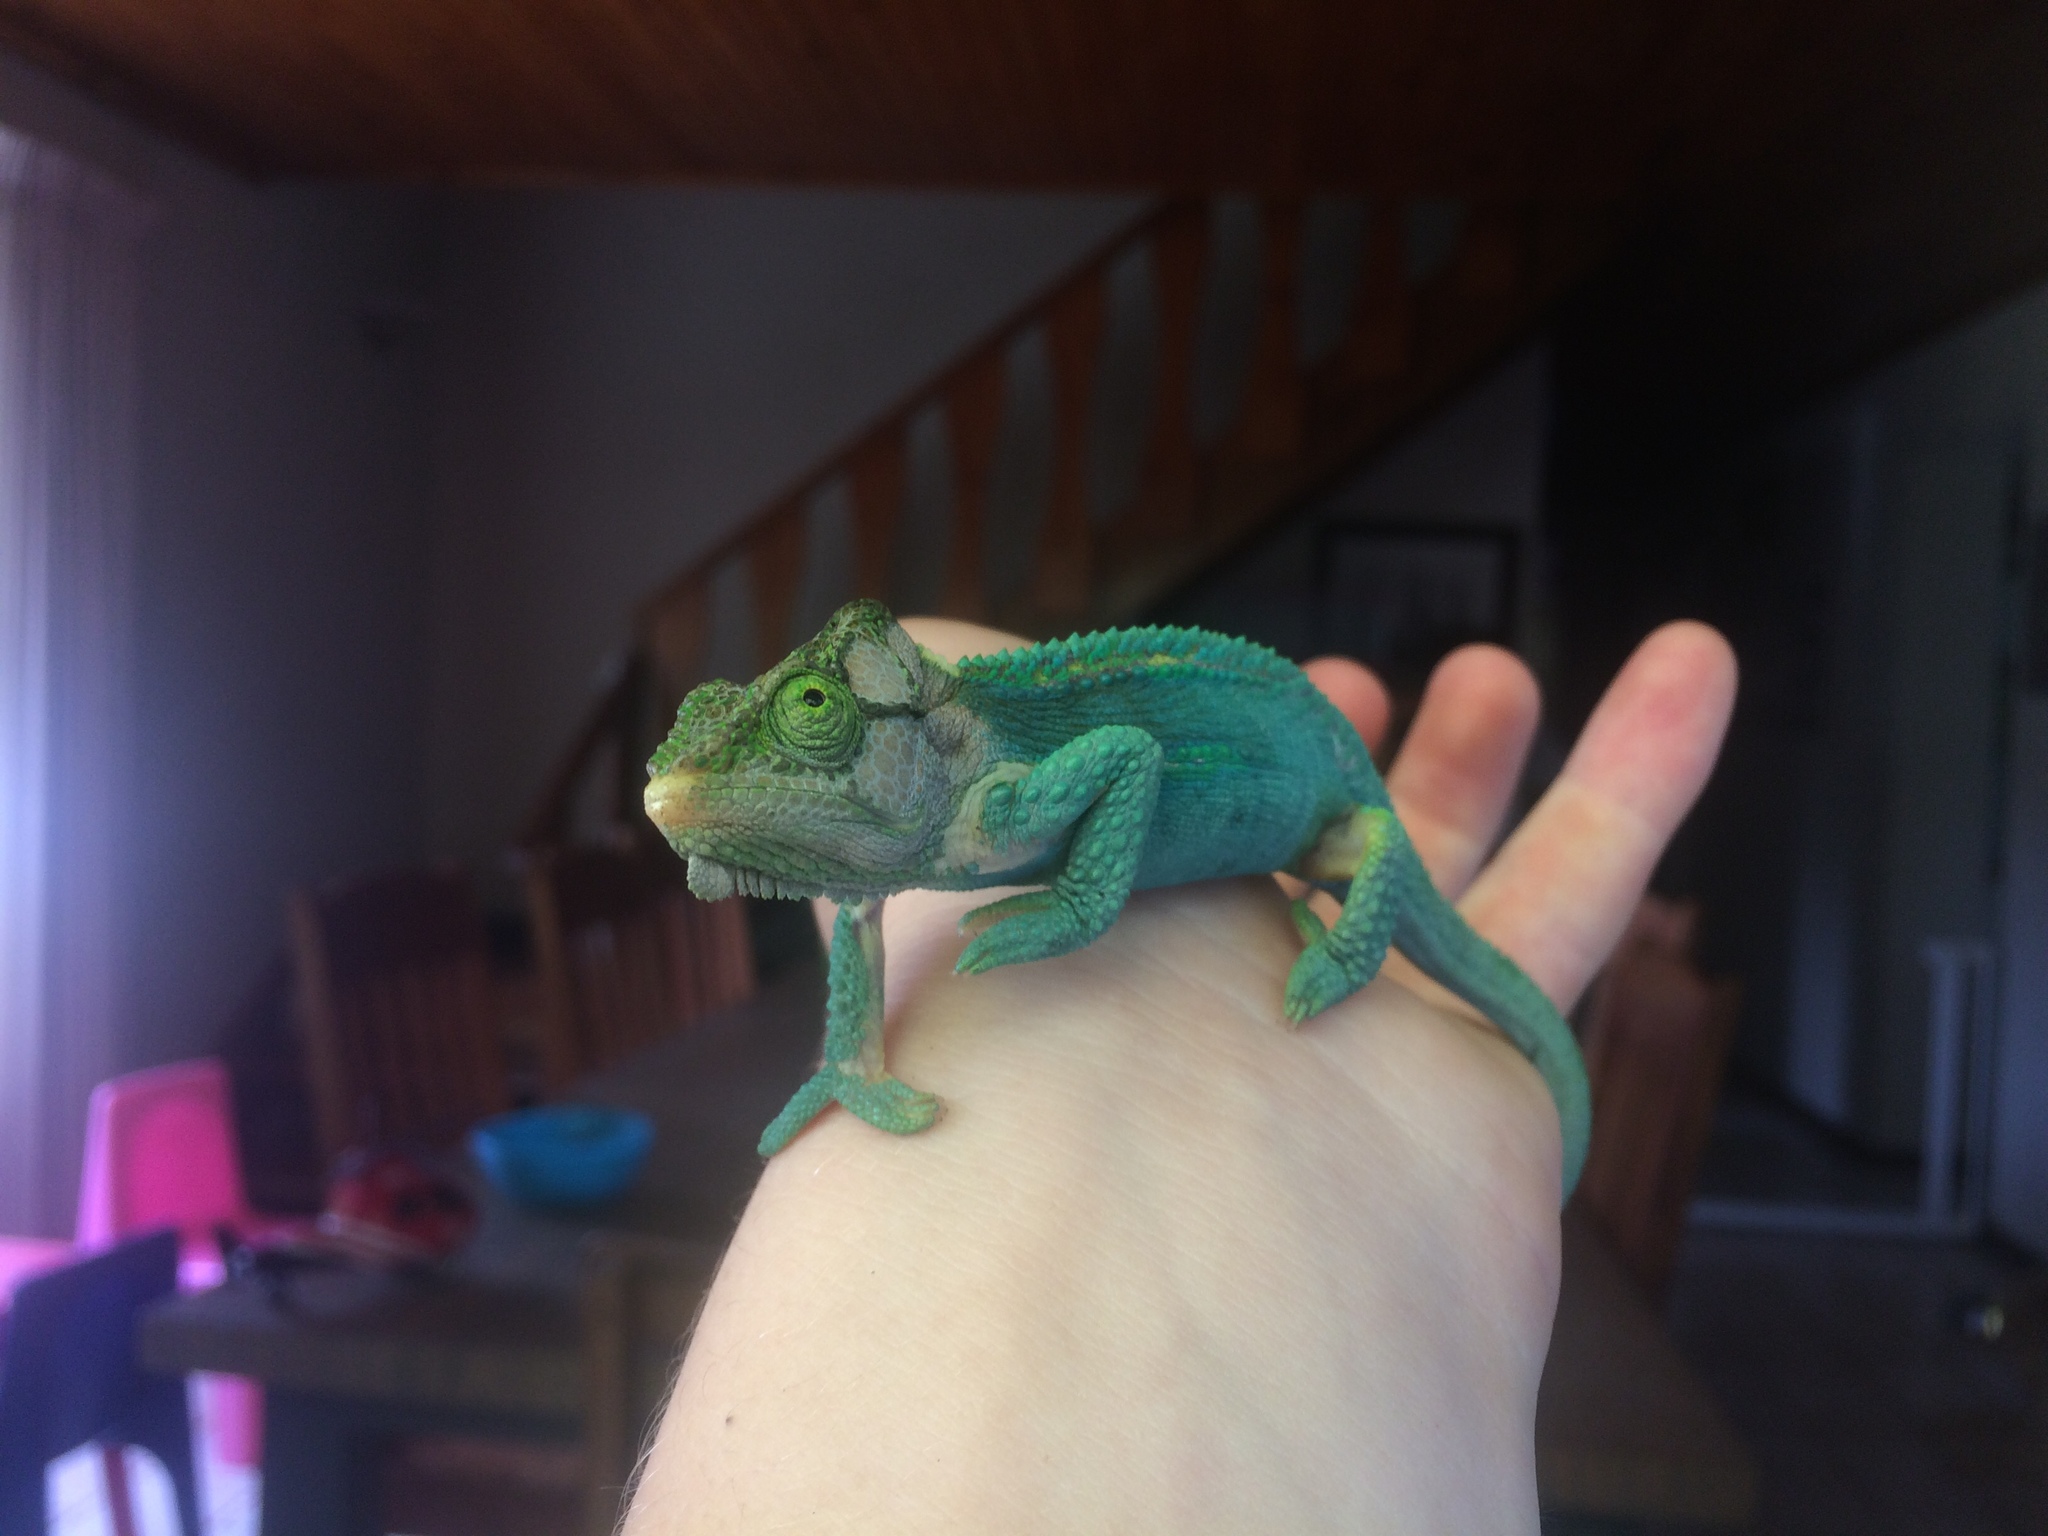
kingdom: Animalia
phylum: Chordata
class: Squamata
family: Chamaeleonidae
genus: Bradypodion
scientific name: Bradypodion damaranum
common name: Knysna dwarf chameleon
